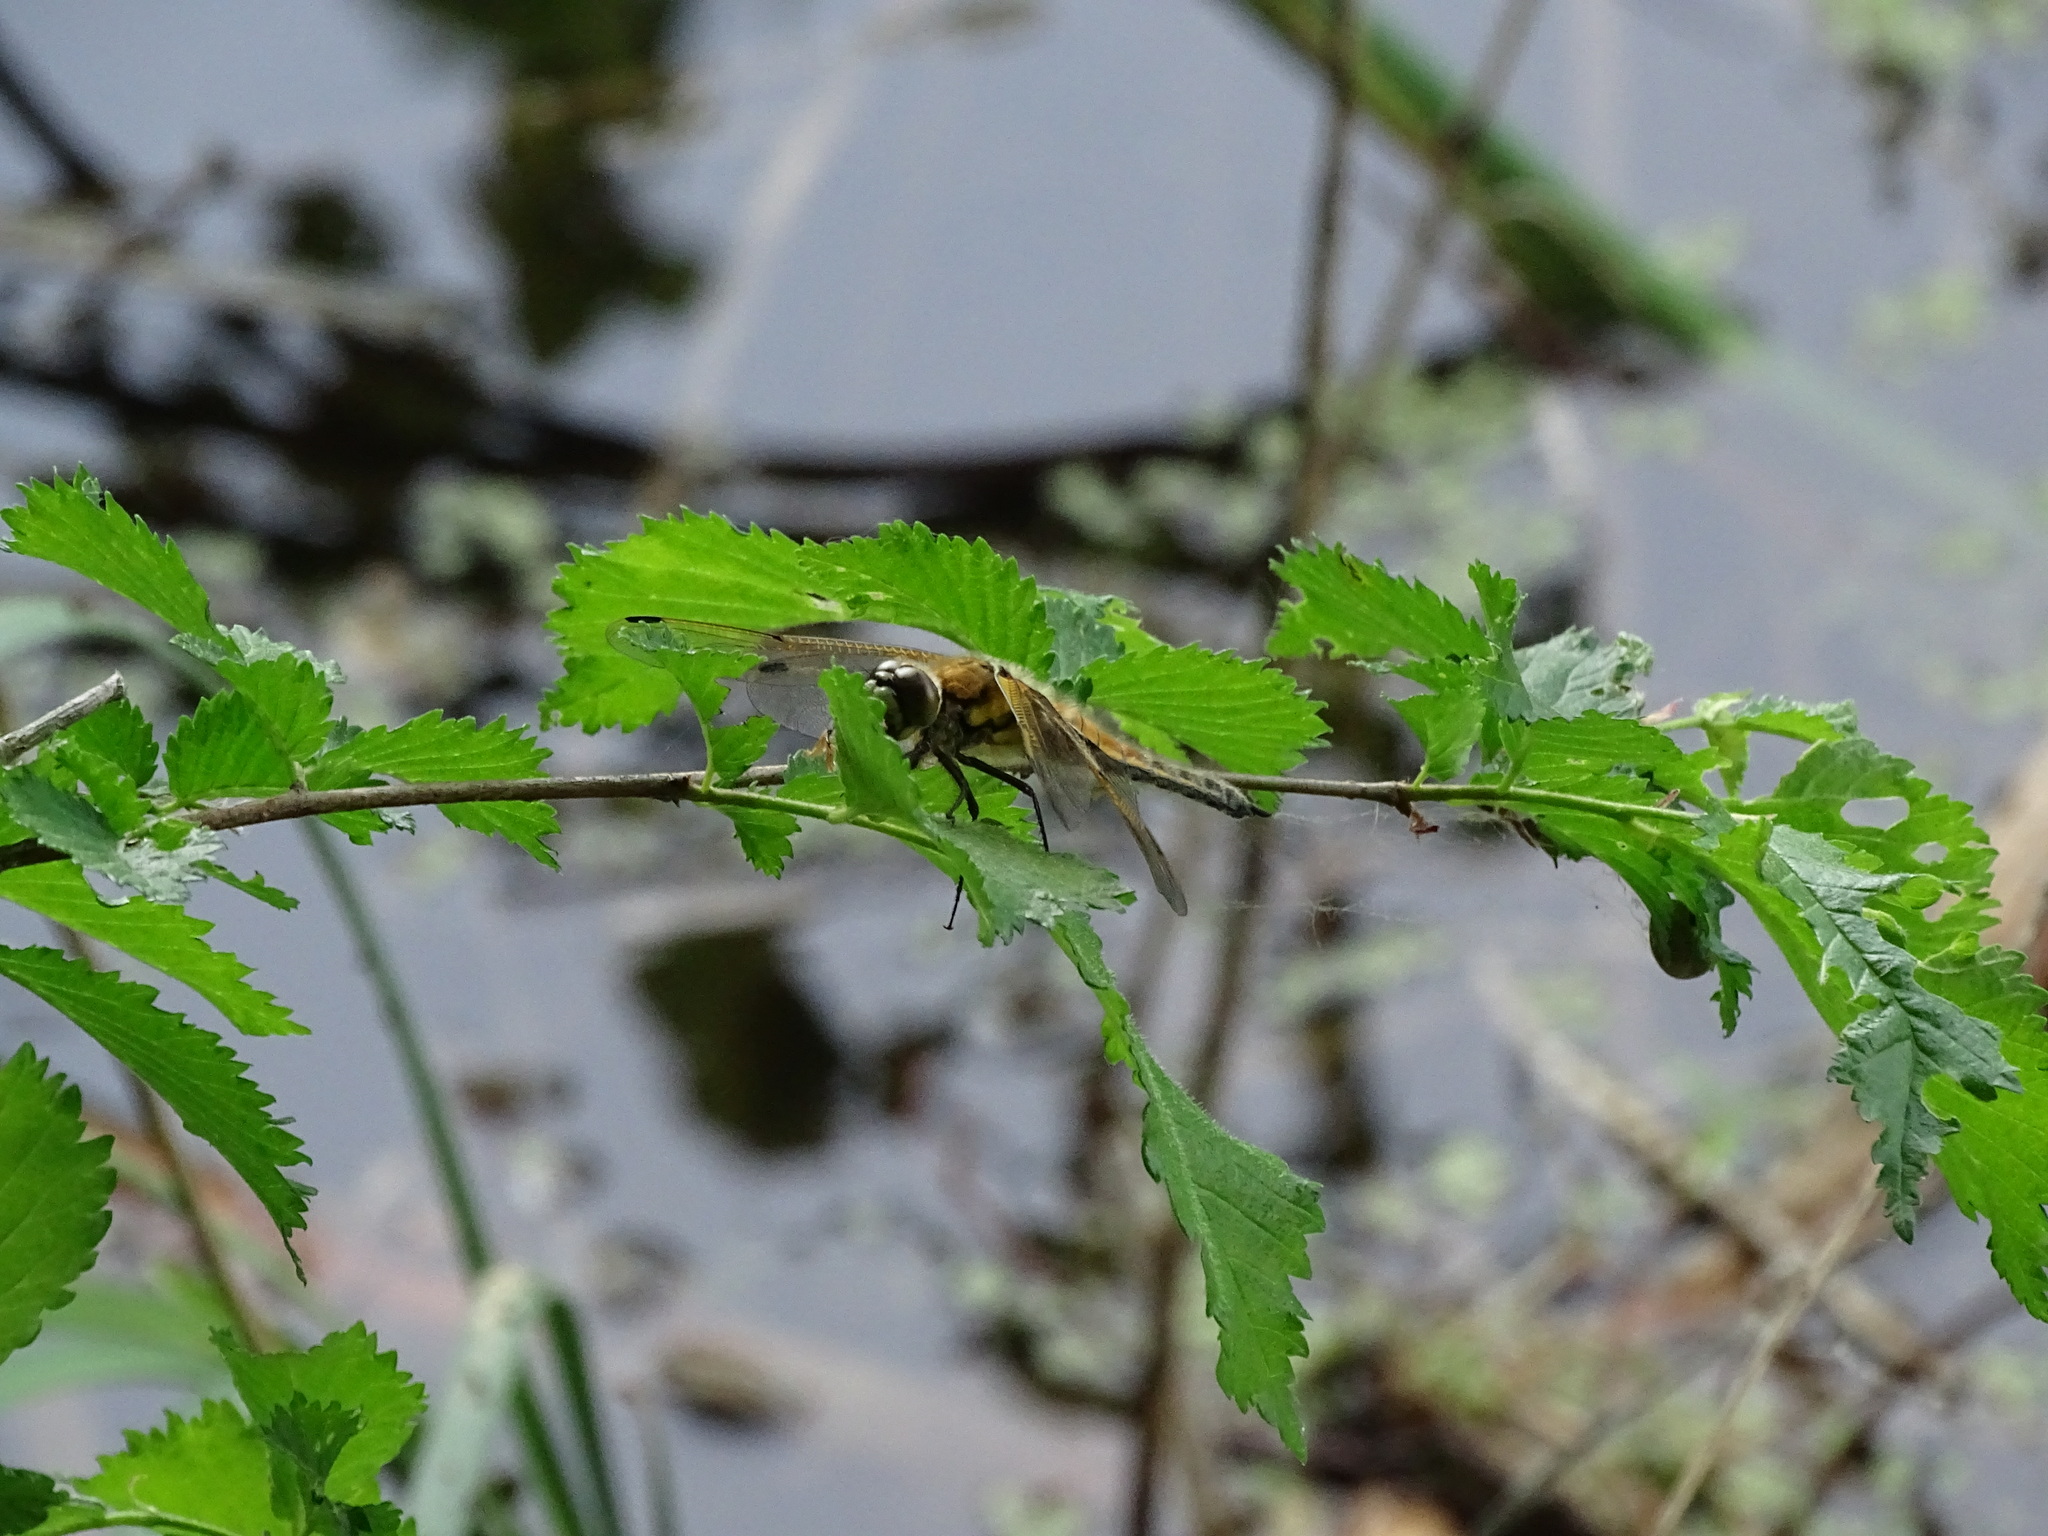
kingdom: Animalia
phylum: Arthropoda
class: Insecta
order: Odonata
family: Libellulidae
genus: Libellula
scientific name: Libellula quadrimaculata
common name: Four-spotted chaser
